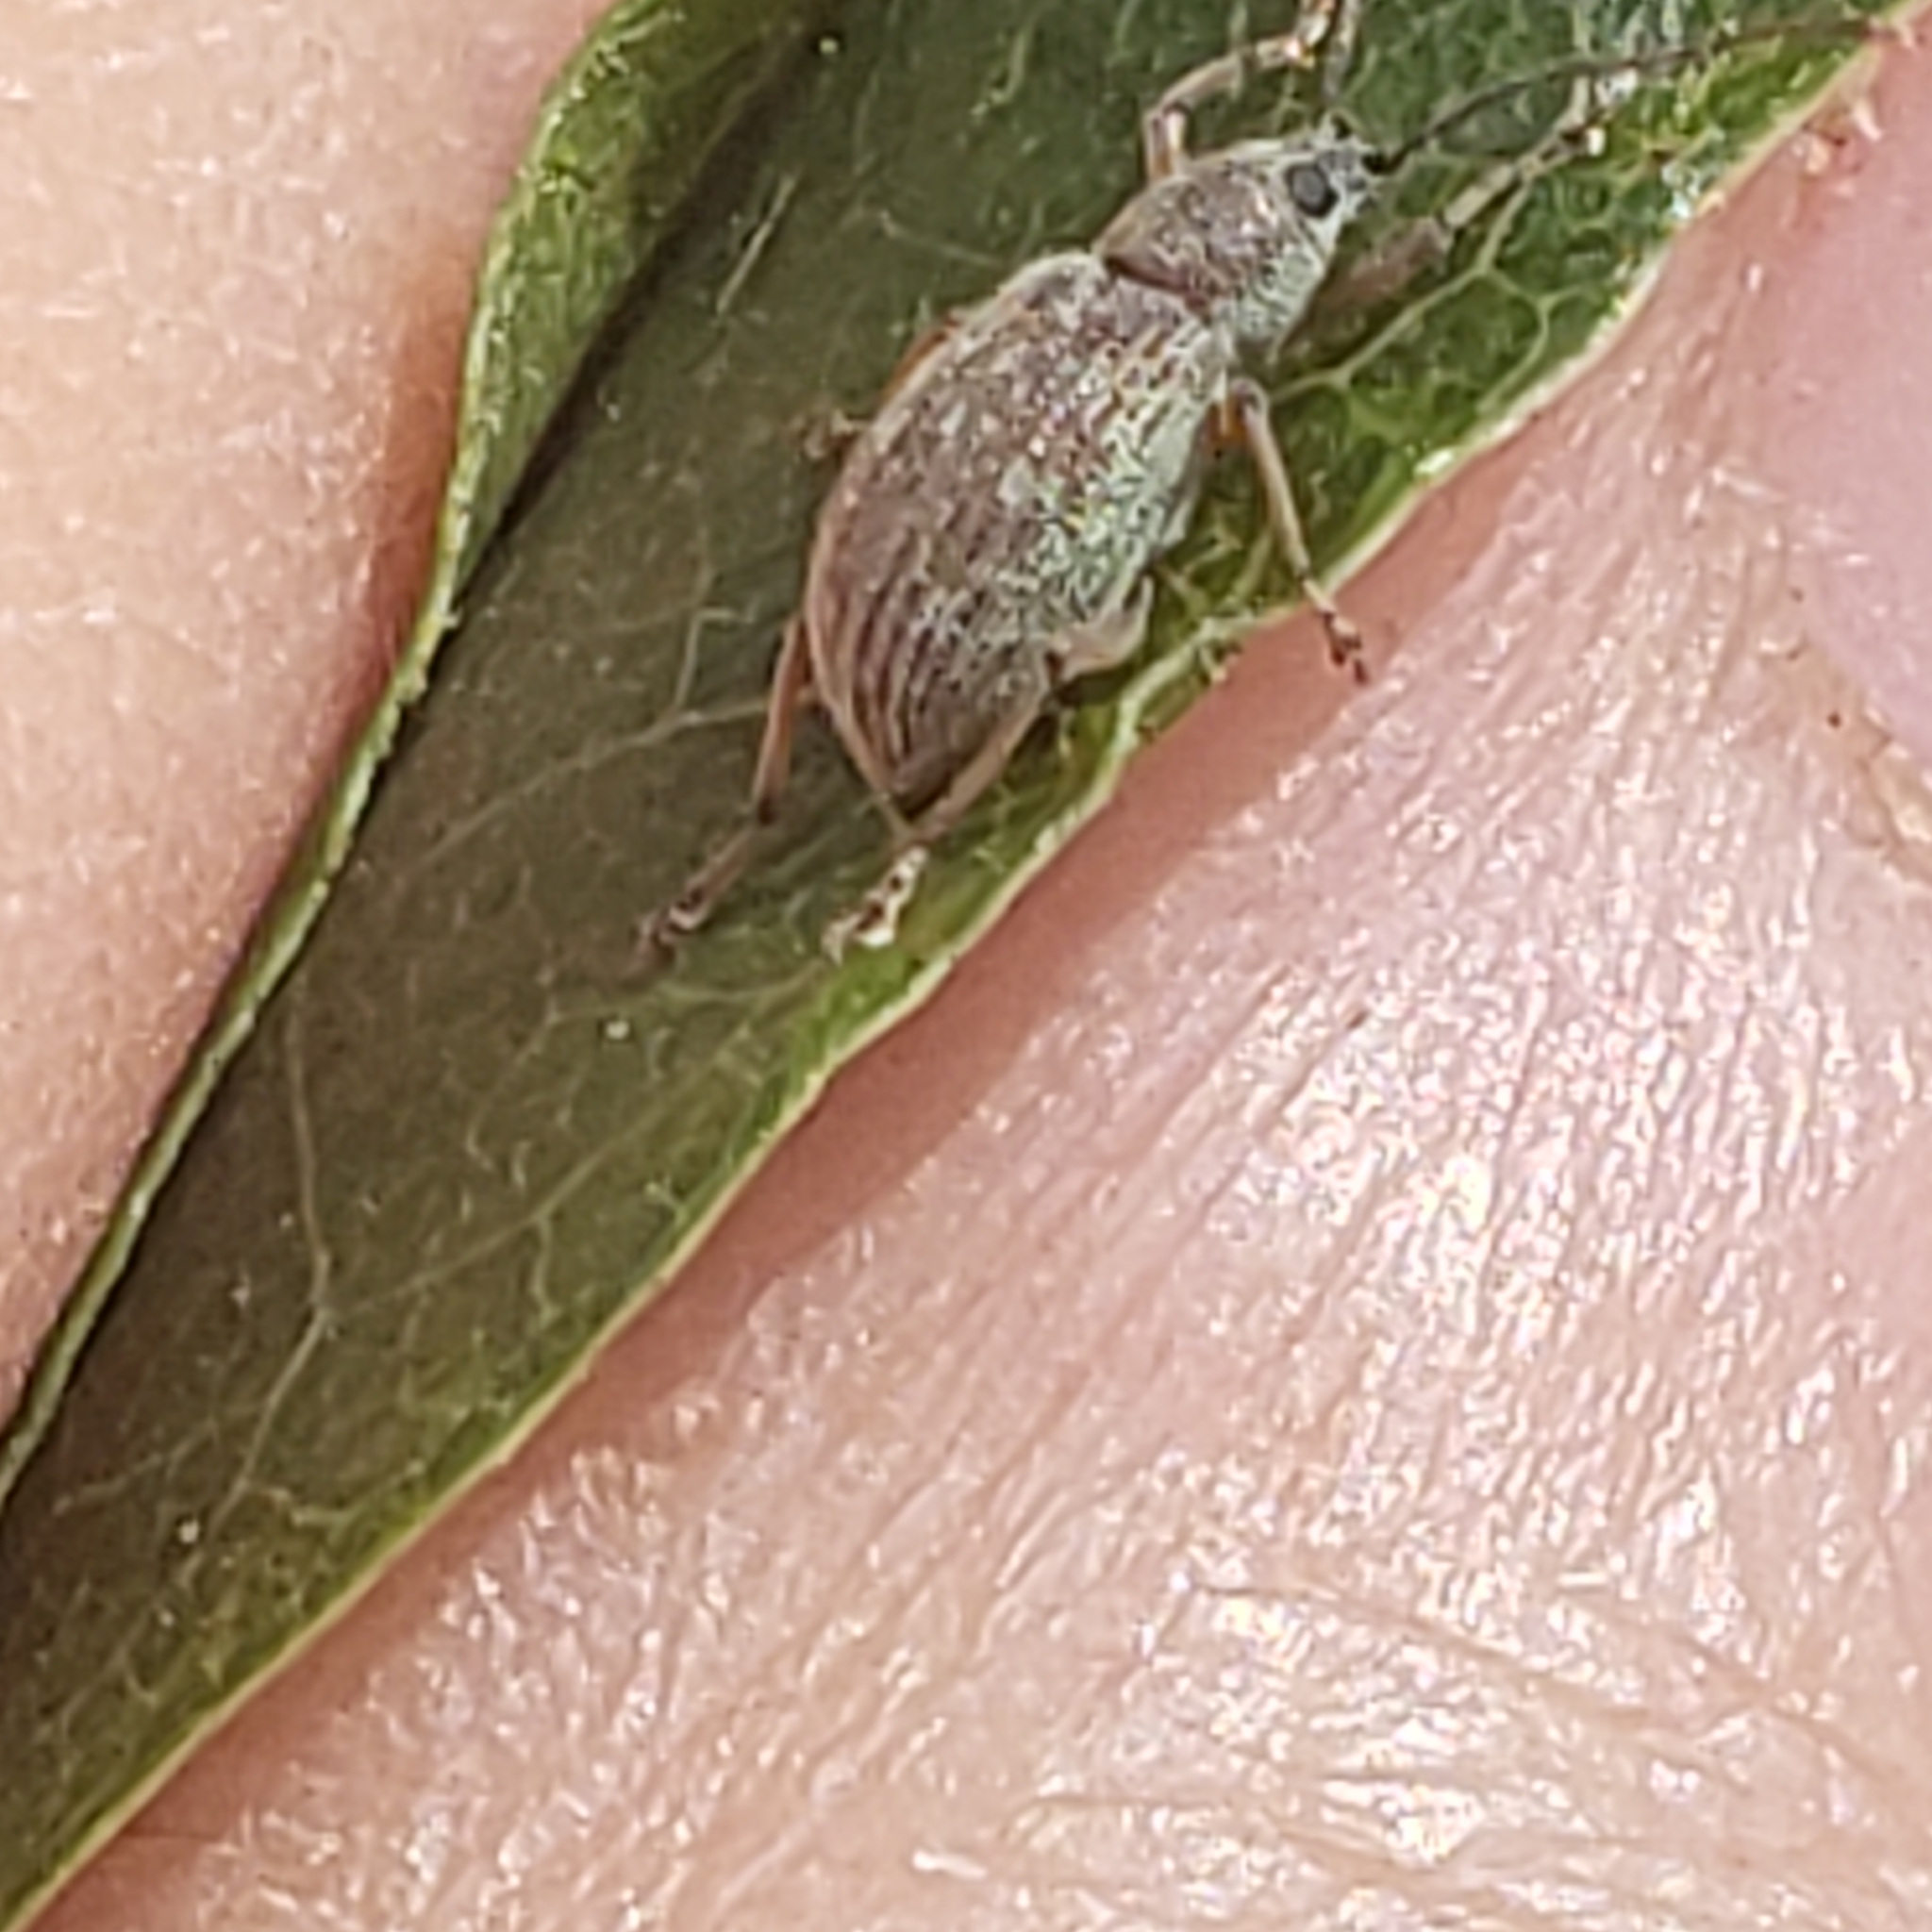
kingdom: Animalia
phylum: Arthropoda
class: Insecta
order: Coleoptera
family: Curculionidae
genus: Cyrtepistomus
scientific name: Cyrtepistomus castaneus
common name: Weevil
